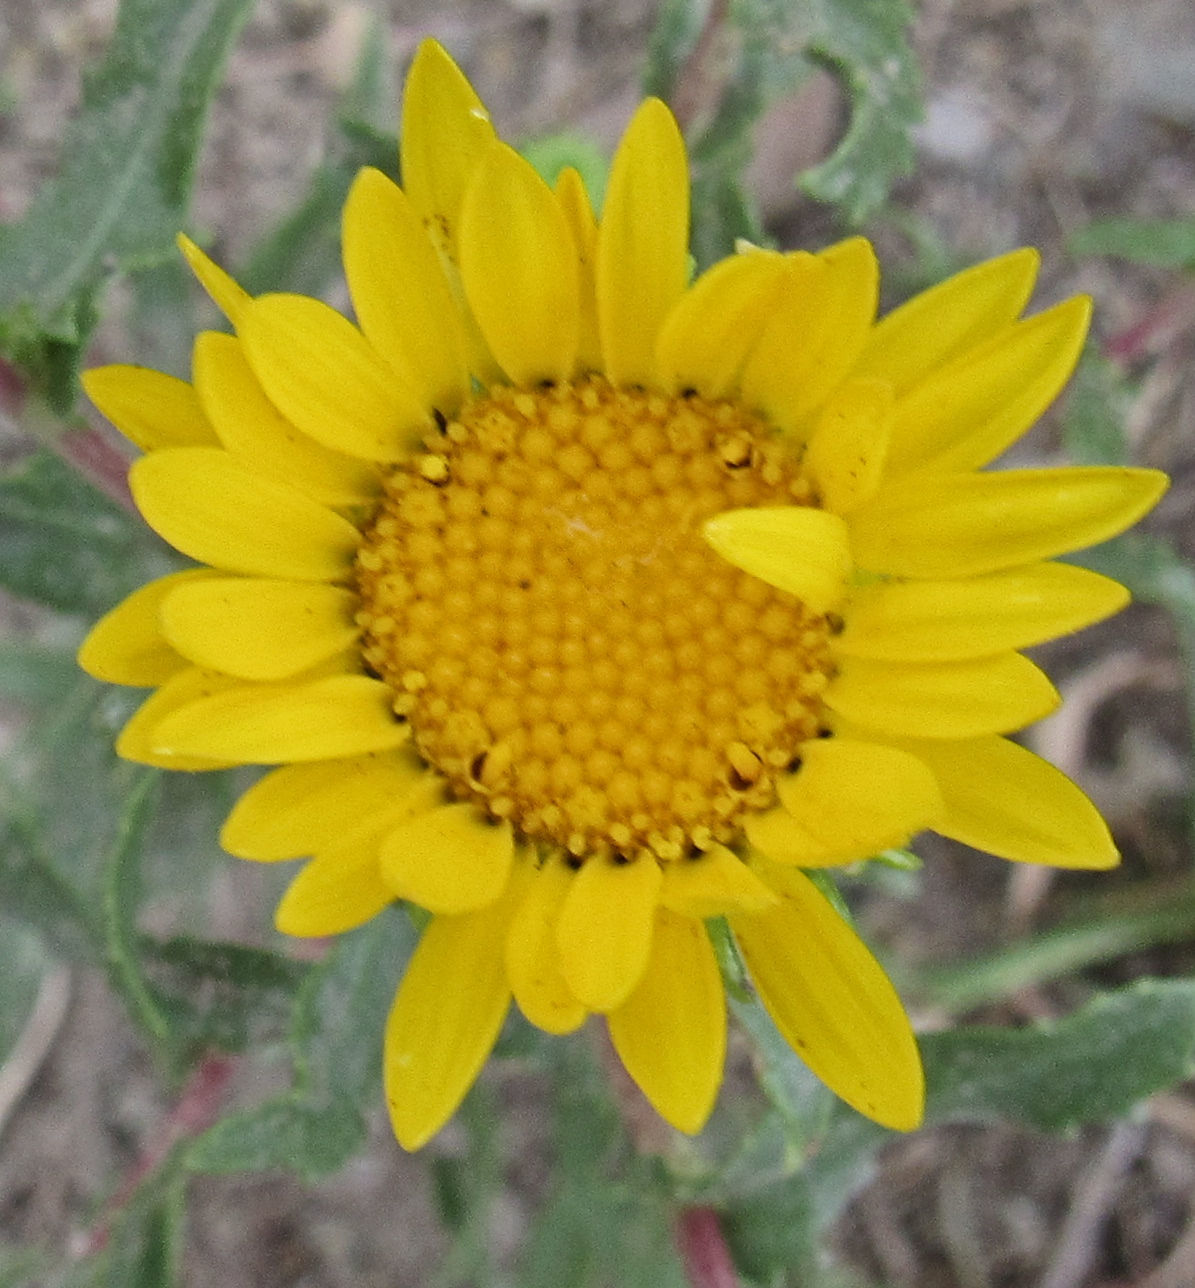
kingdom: Plantae
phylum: Tracheophyta
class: Magnoliopsida
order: Asterales
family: Asteraceae
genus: Grindelia
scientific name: Grindelia squarrosa
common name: Curly-cup gumweed
